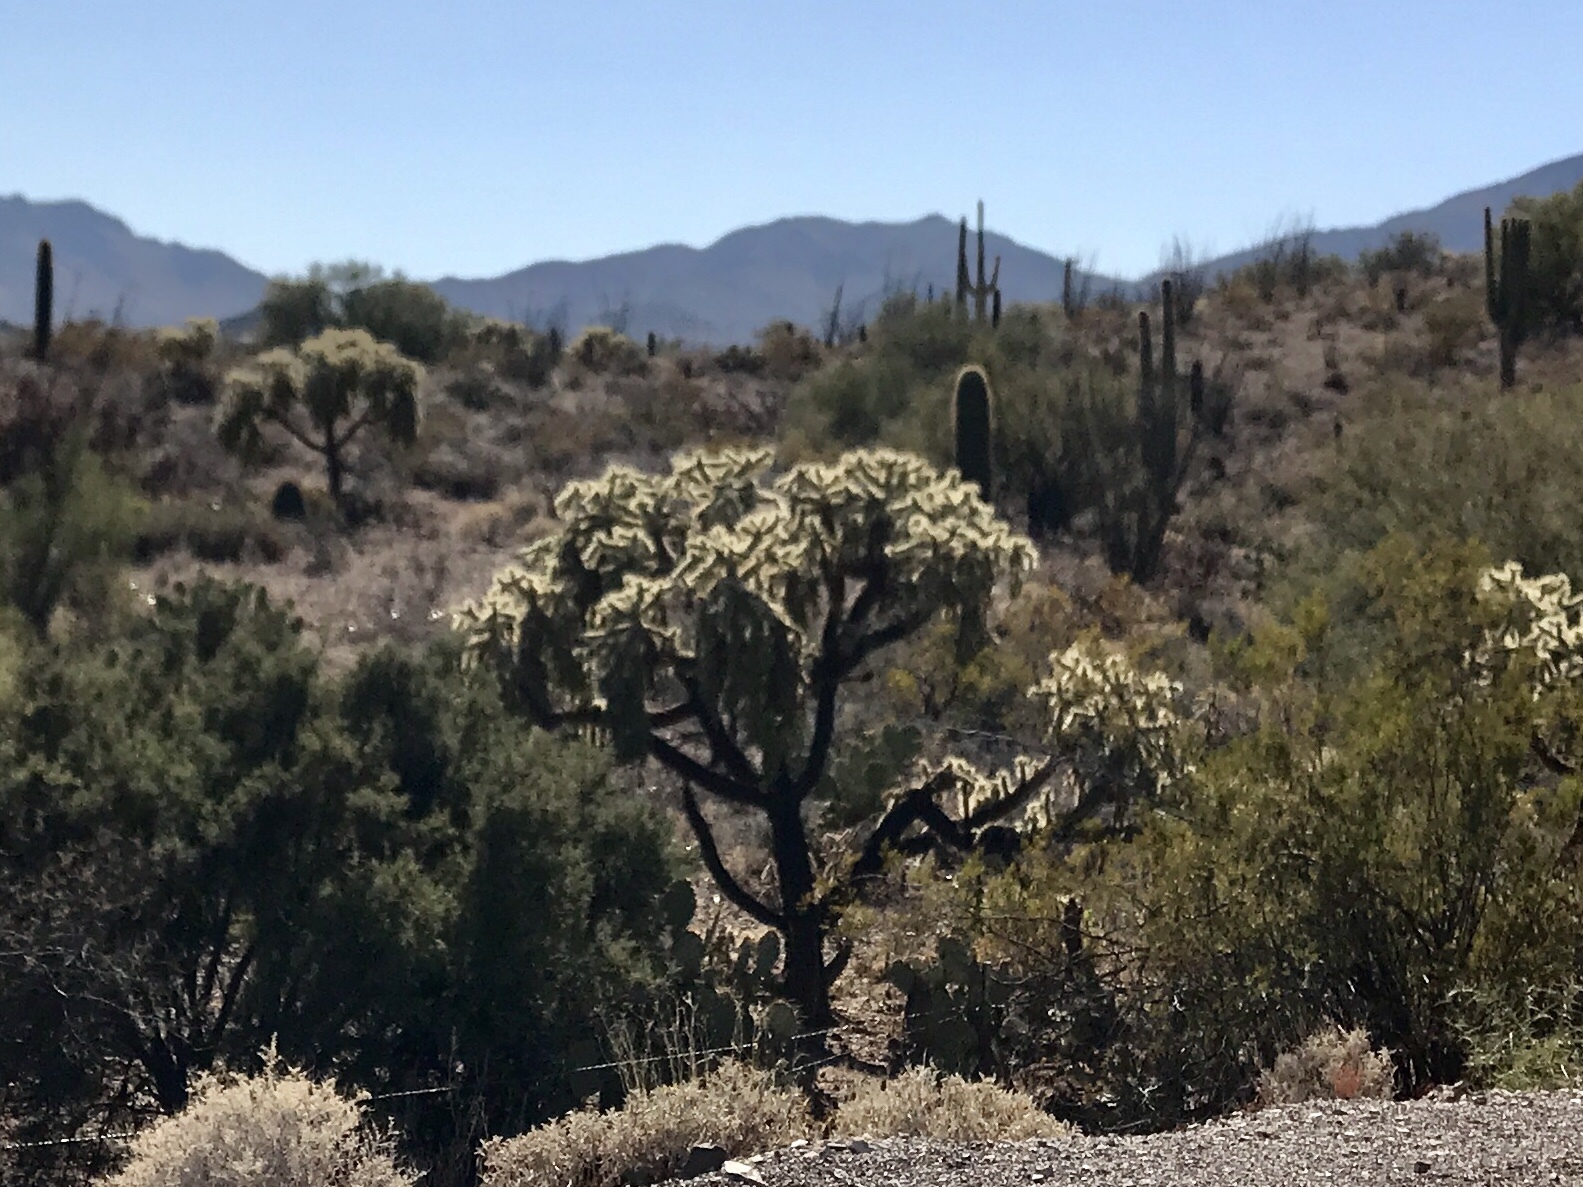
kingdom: Plantae
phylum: Tracheophyta
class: Magnoliopsida
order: Caryophyllales
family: Cactaceae
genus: Cylindropuntia
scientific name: Cylindropuntia fulgida
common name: Jumping cholla
